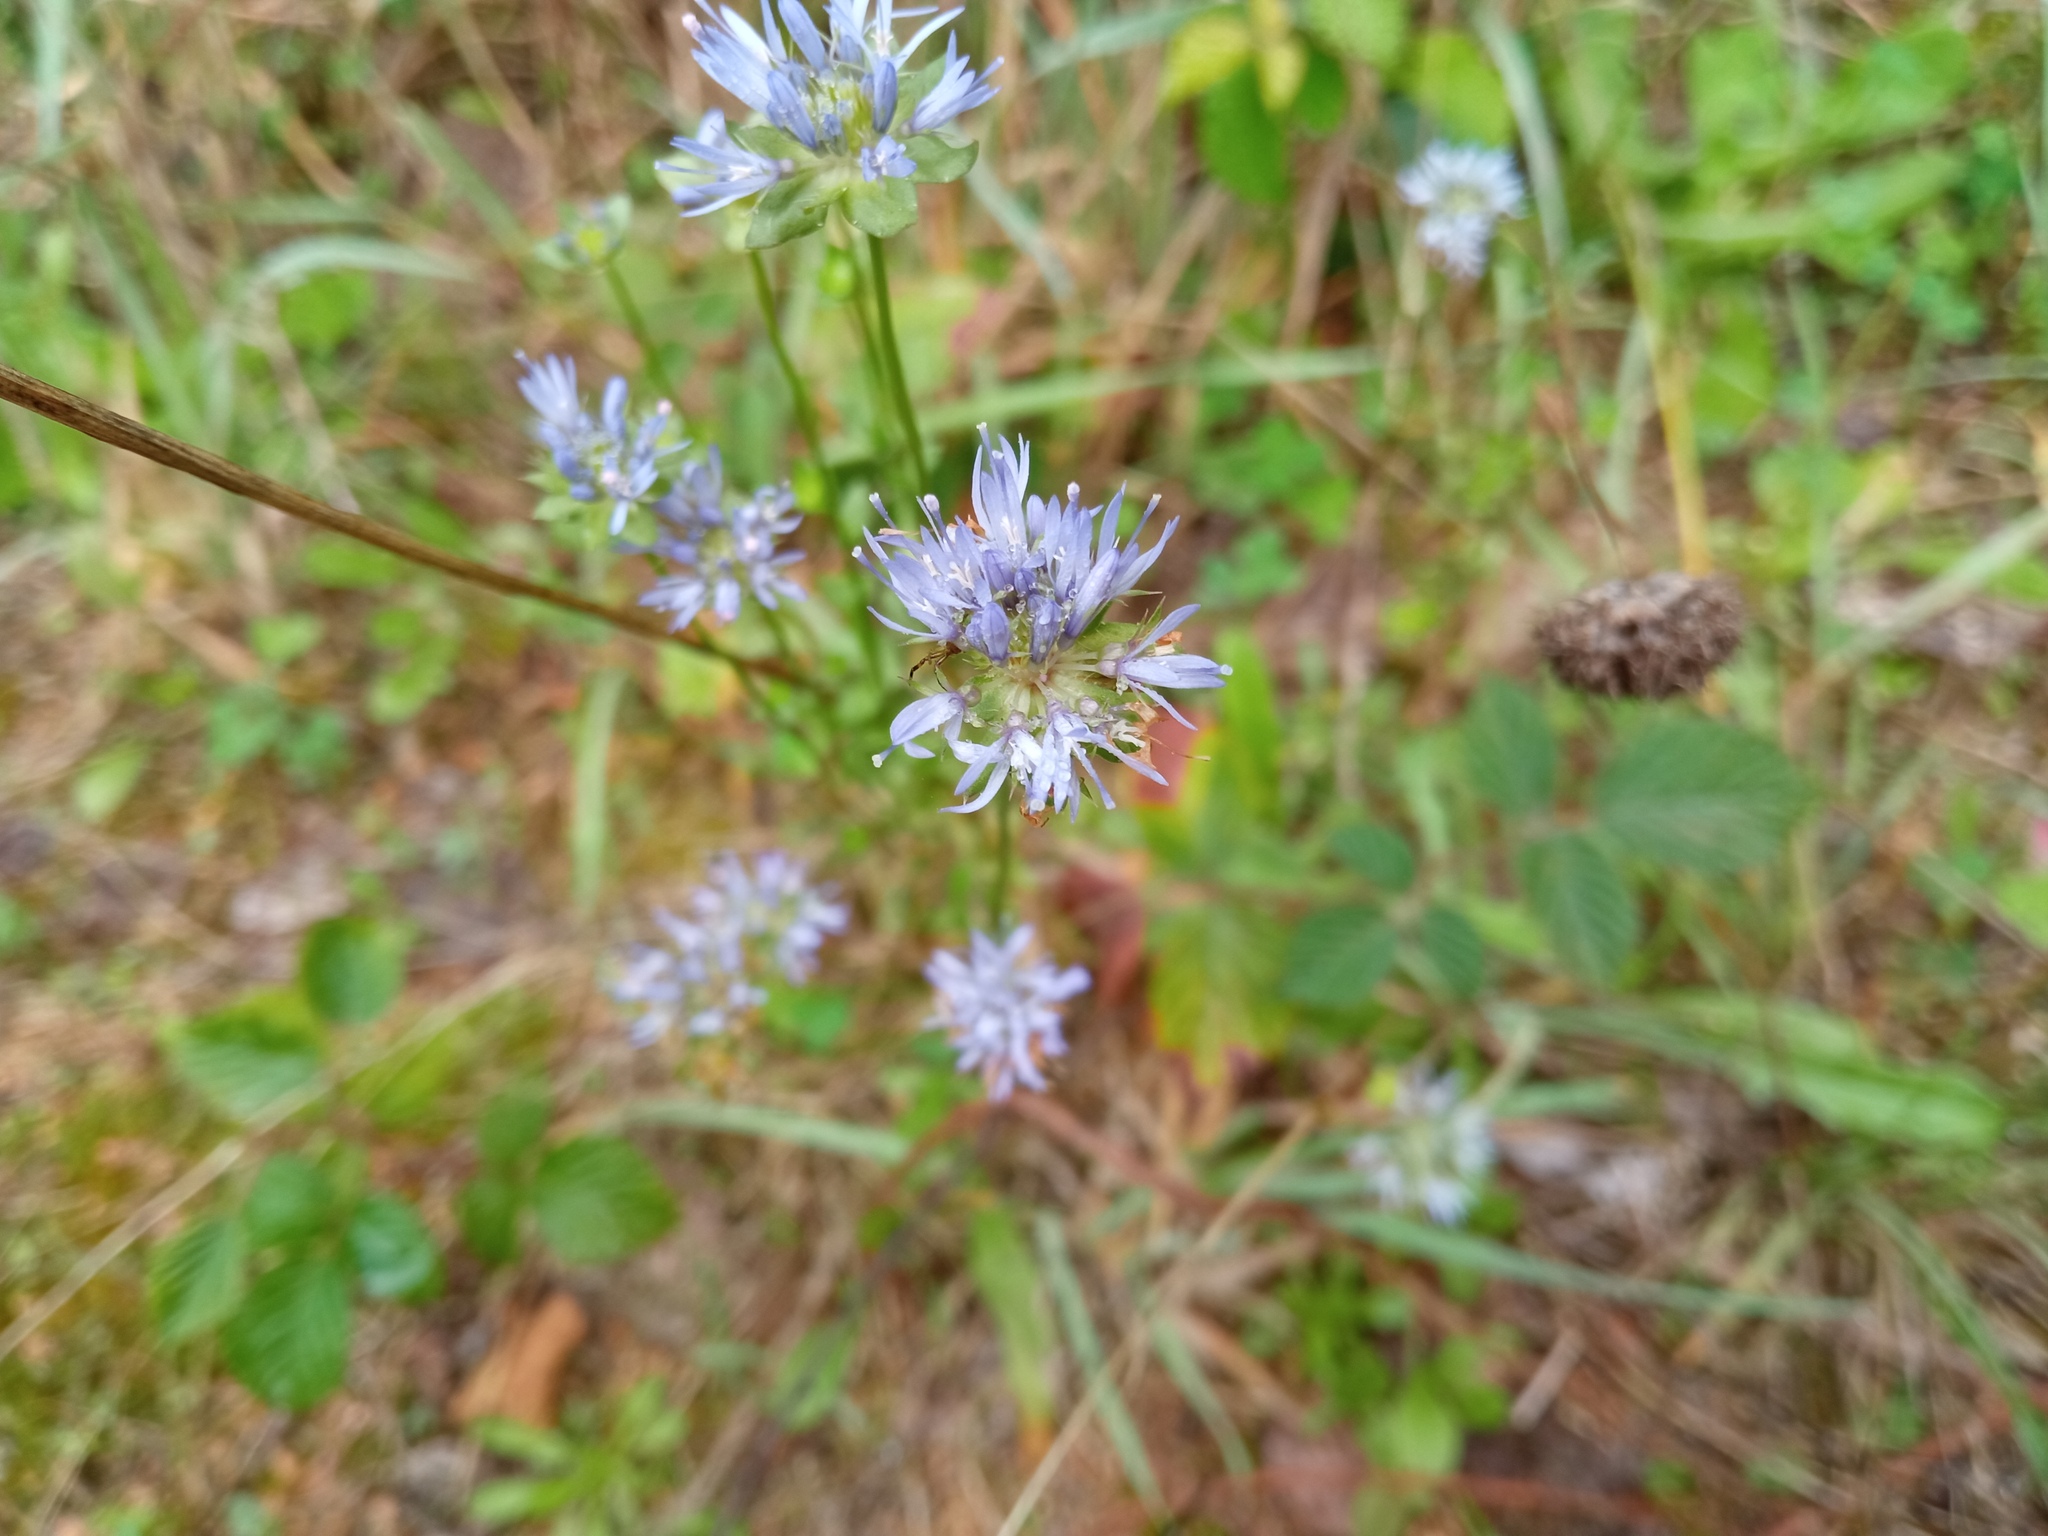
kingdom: Plantae
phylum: Tracheophyta
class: Magnoliopsida
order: Asterales
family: Campanulaceae
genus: Jasione
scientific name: Jasione montana
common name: Sheep's-bit
